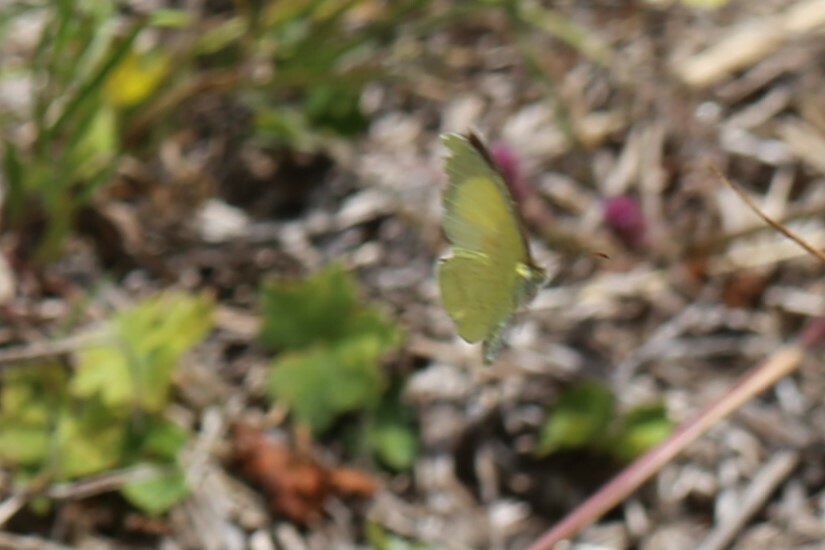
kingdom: Animalia
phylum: Arthropoda
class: Insecta
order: Lepidoptera
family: Pieridae
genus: Eurema
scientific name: Eurema smilax
